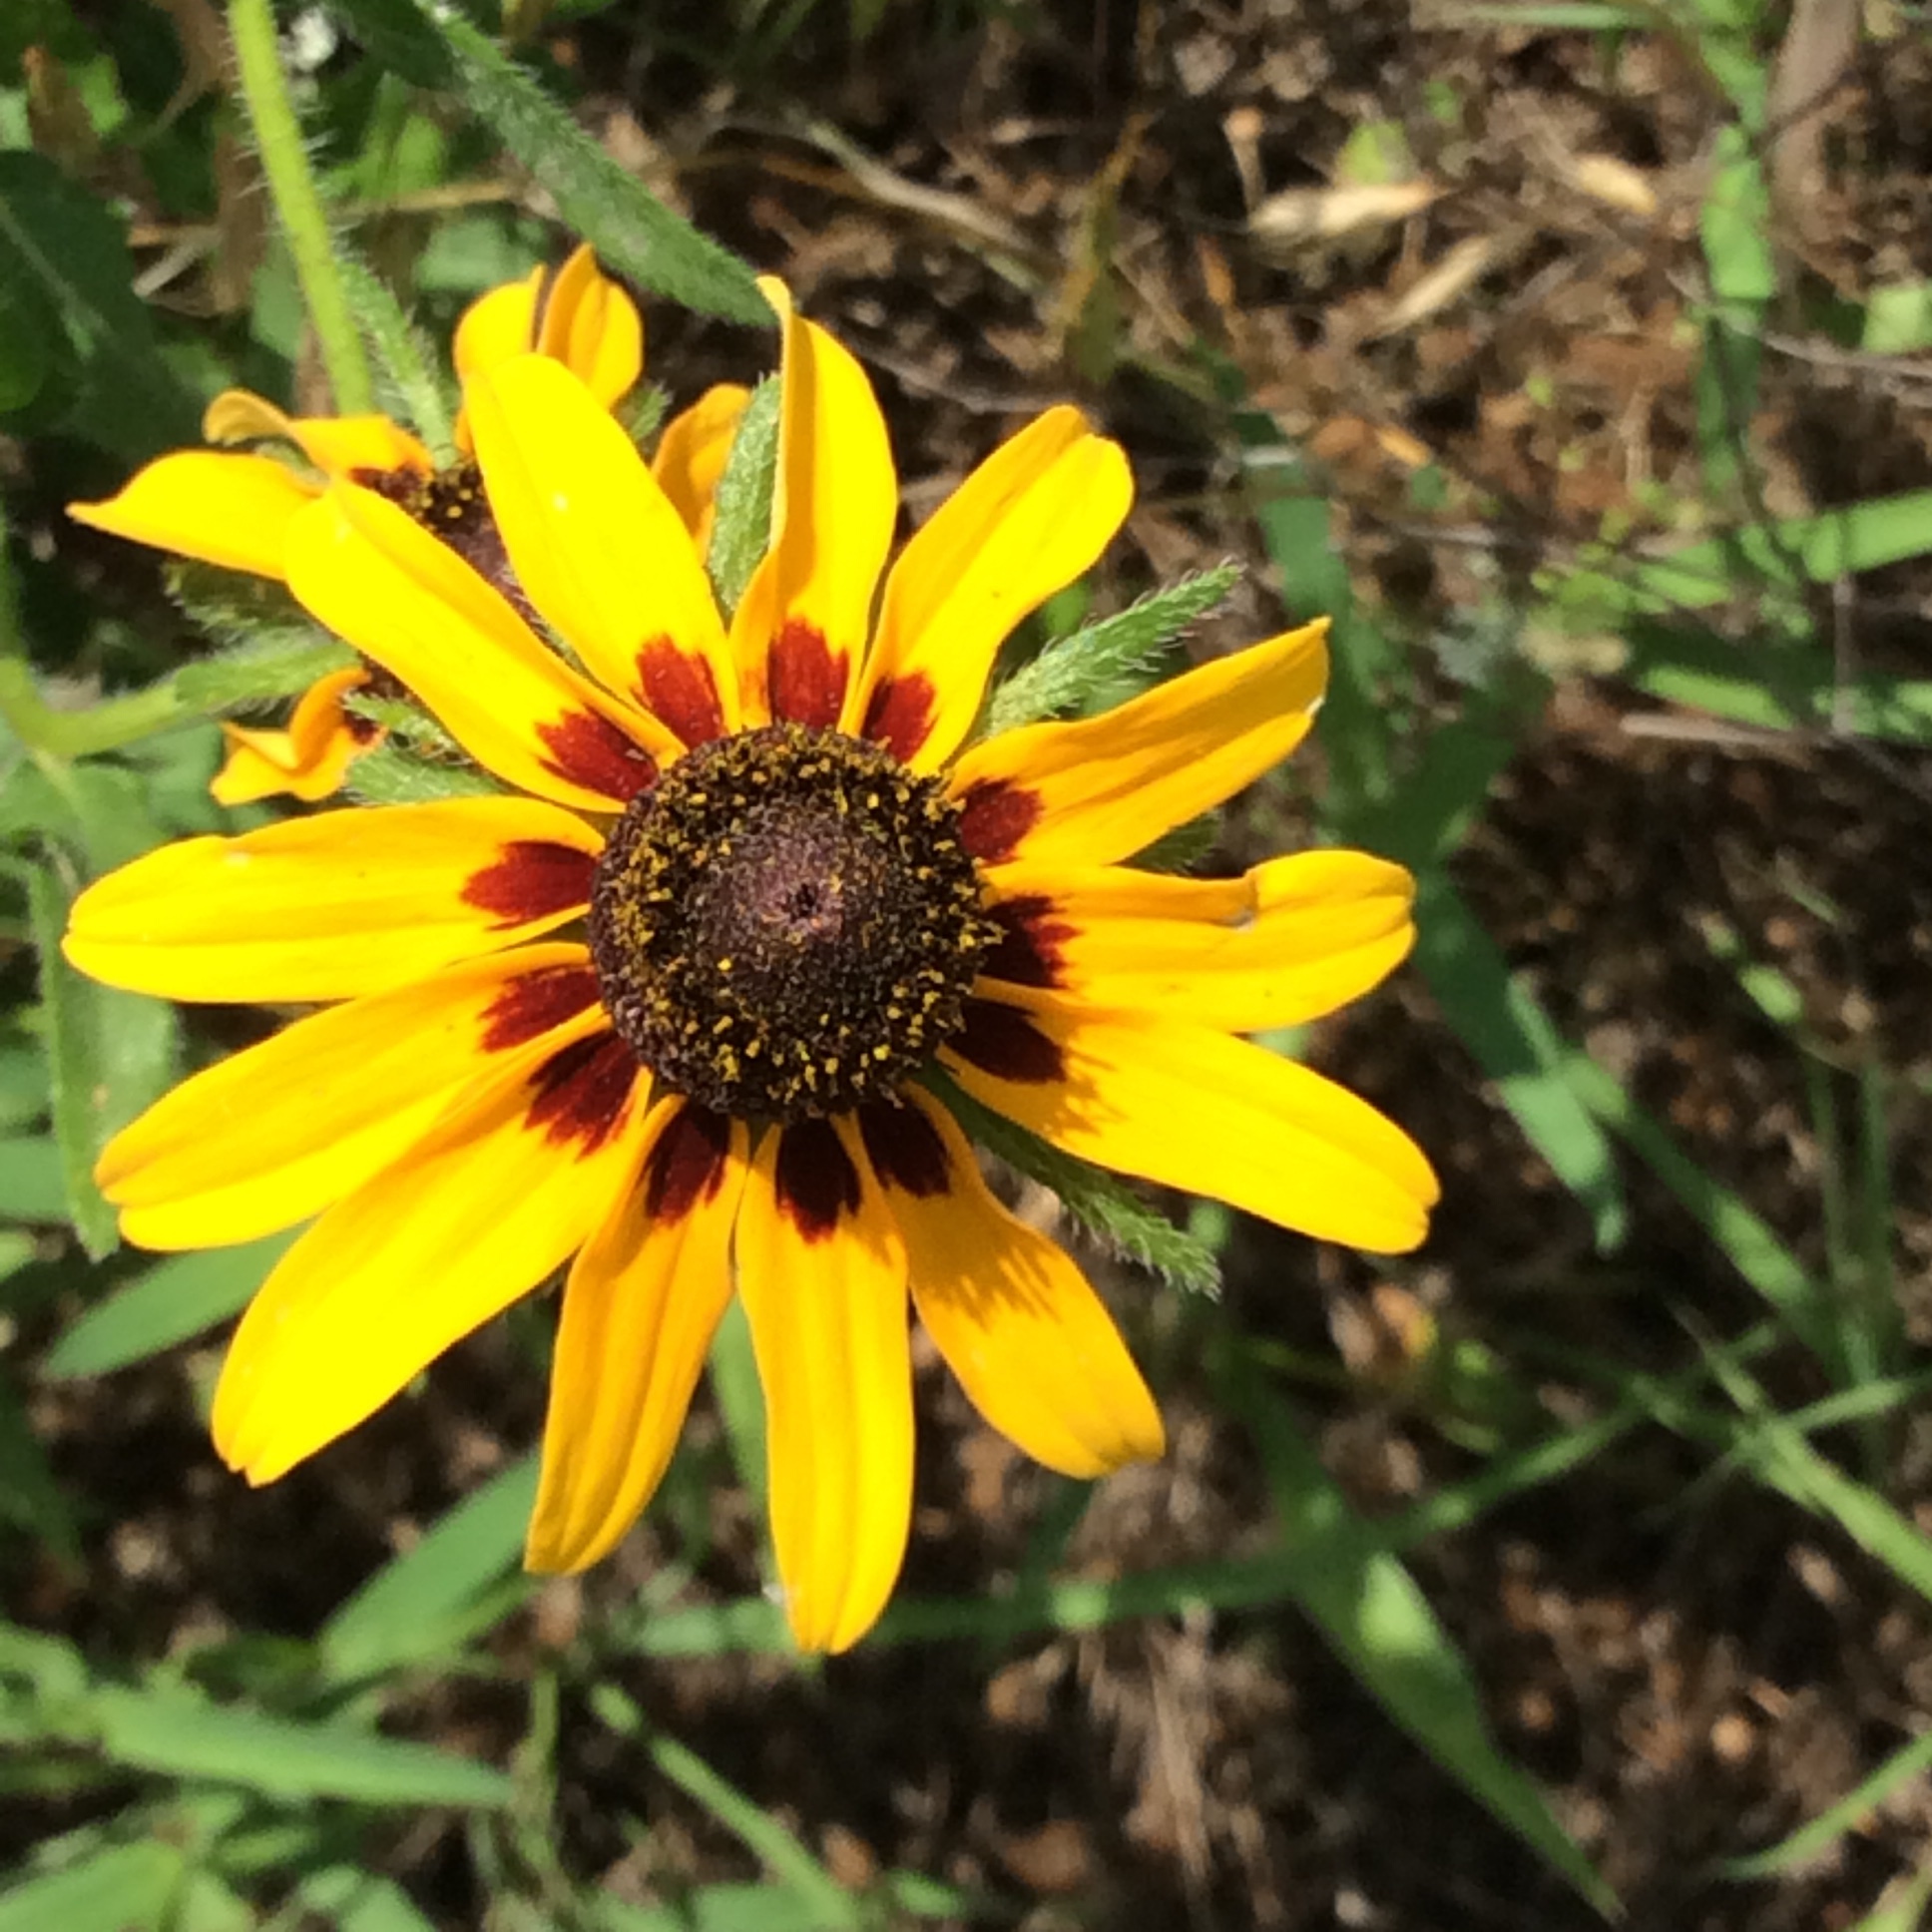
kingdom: Plantae
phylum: Tracheophyta
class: Magnoliopsida
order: Asterales
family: Asteraceae
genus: Rudbeckia
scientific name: Rudbeckia hirta
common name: Black-eyed-susan
